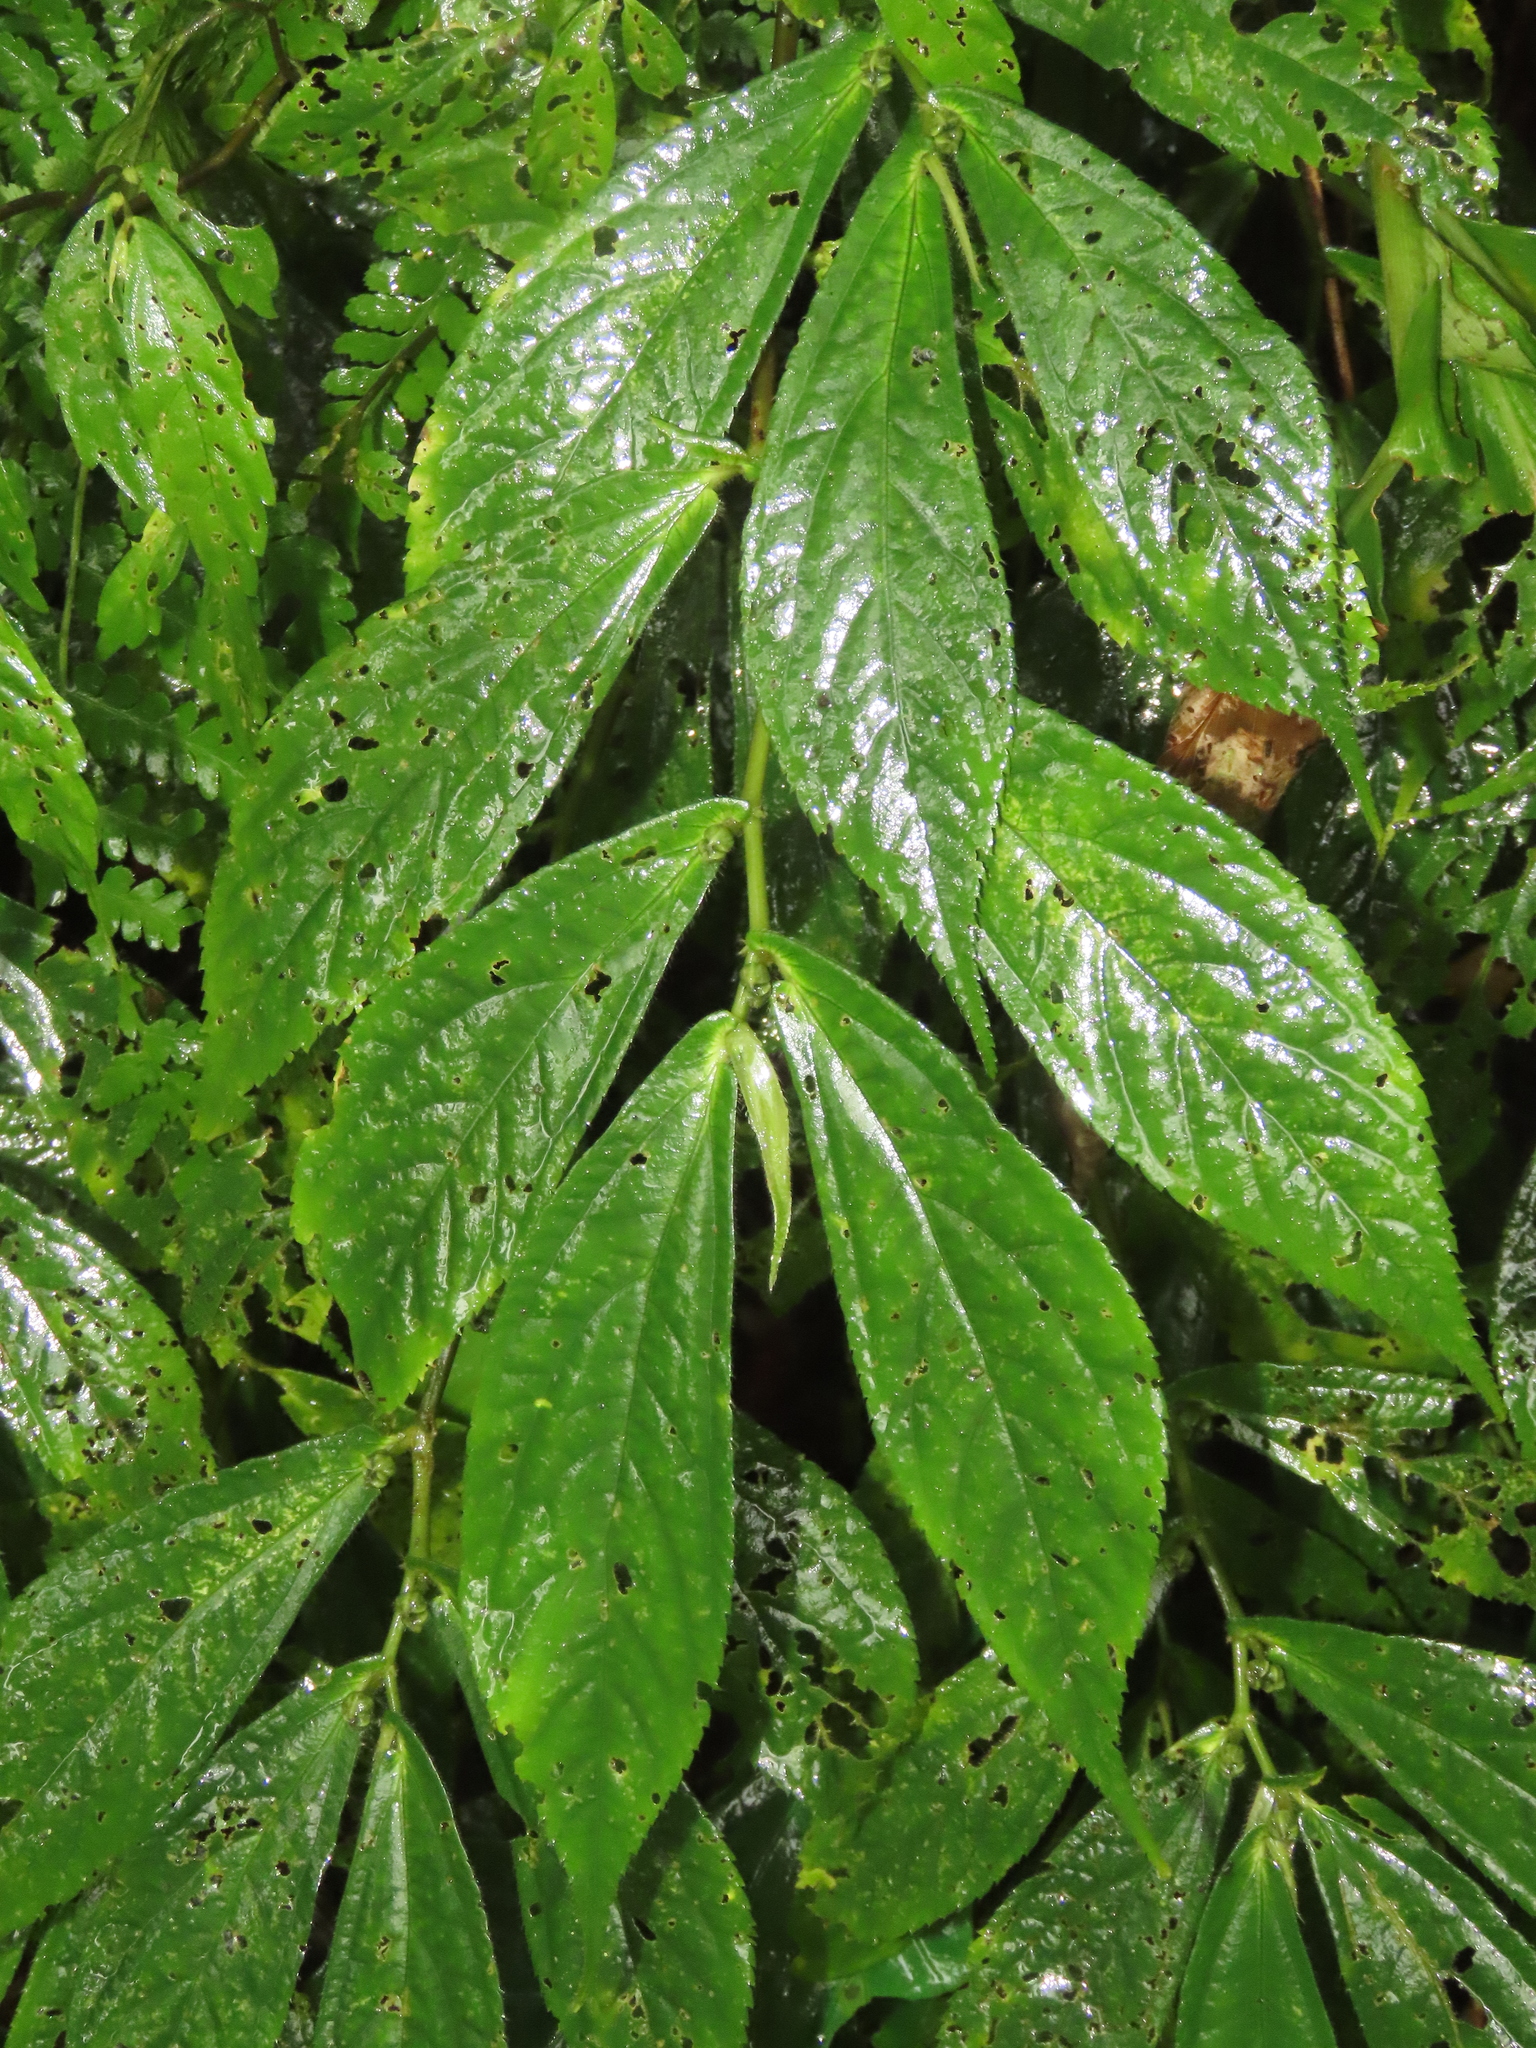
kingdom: Plantae
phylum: Tracheophyta
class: Magnoliopsida
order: Rosales
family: Urticaceae
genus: Elatostema
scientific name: Elatostema platyphyllum
